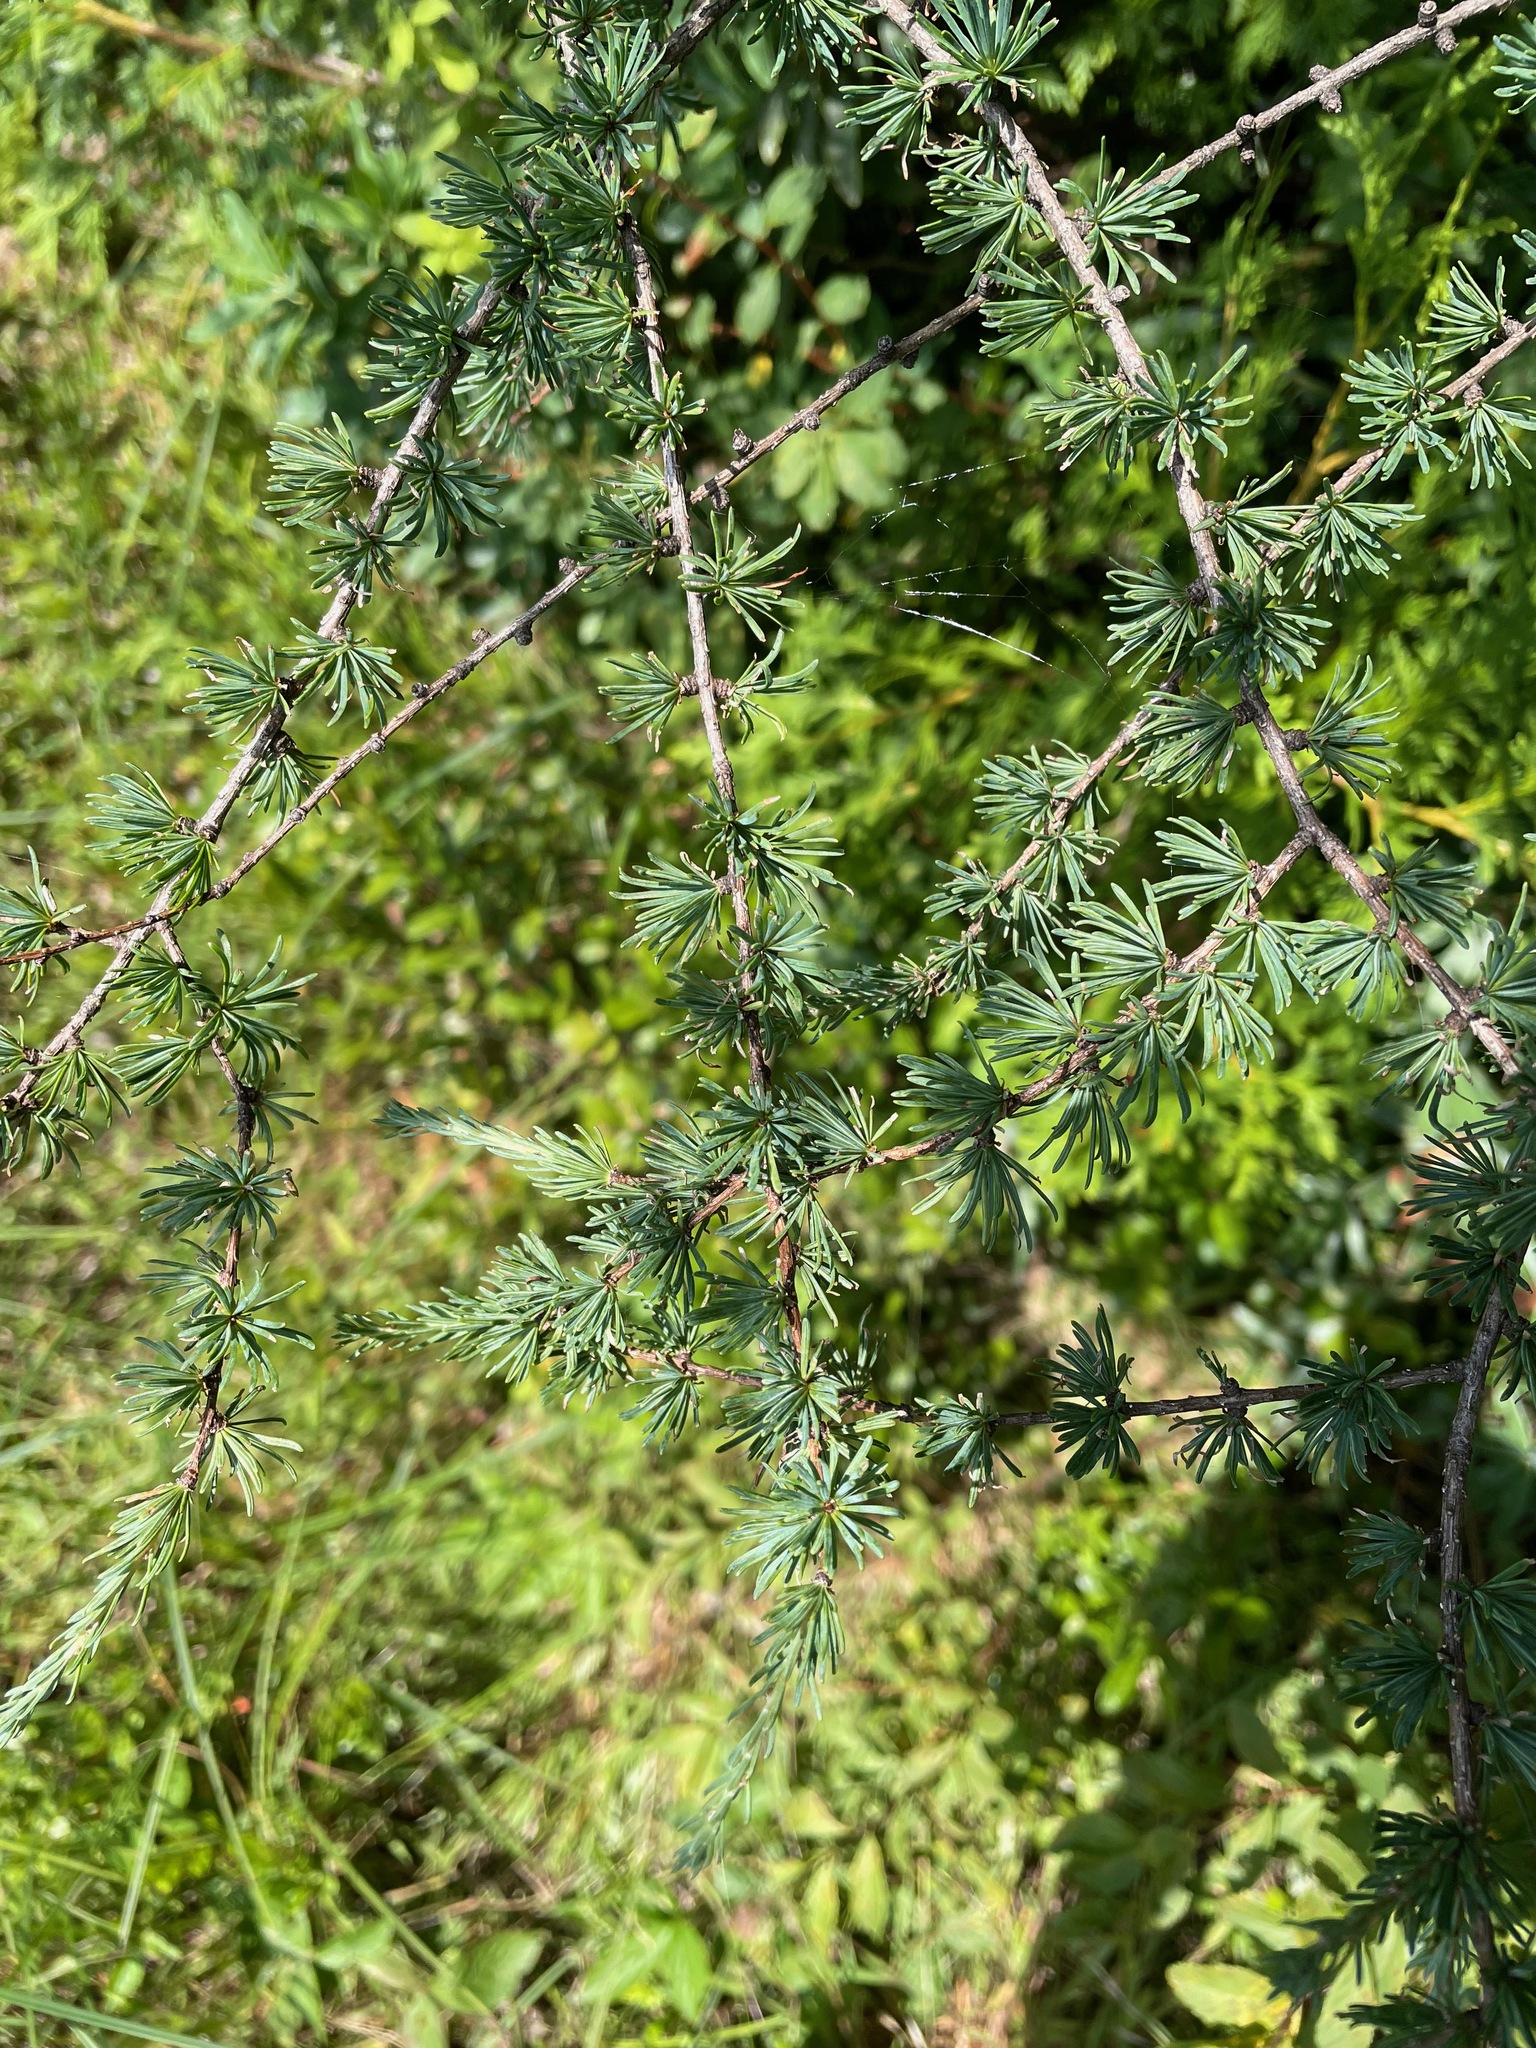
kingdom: Plantae
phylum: Tracheophyta
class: Pinopsida
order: Pinales
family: Pinaceae
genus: Larix
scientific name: Larix laricina
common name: American larch
